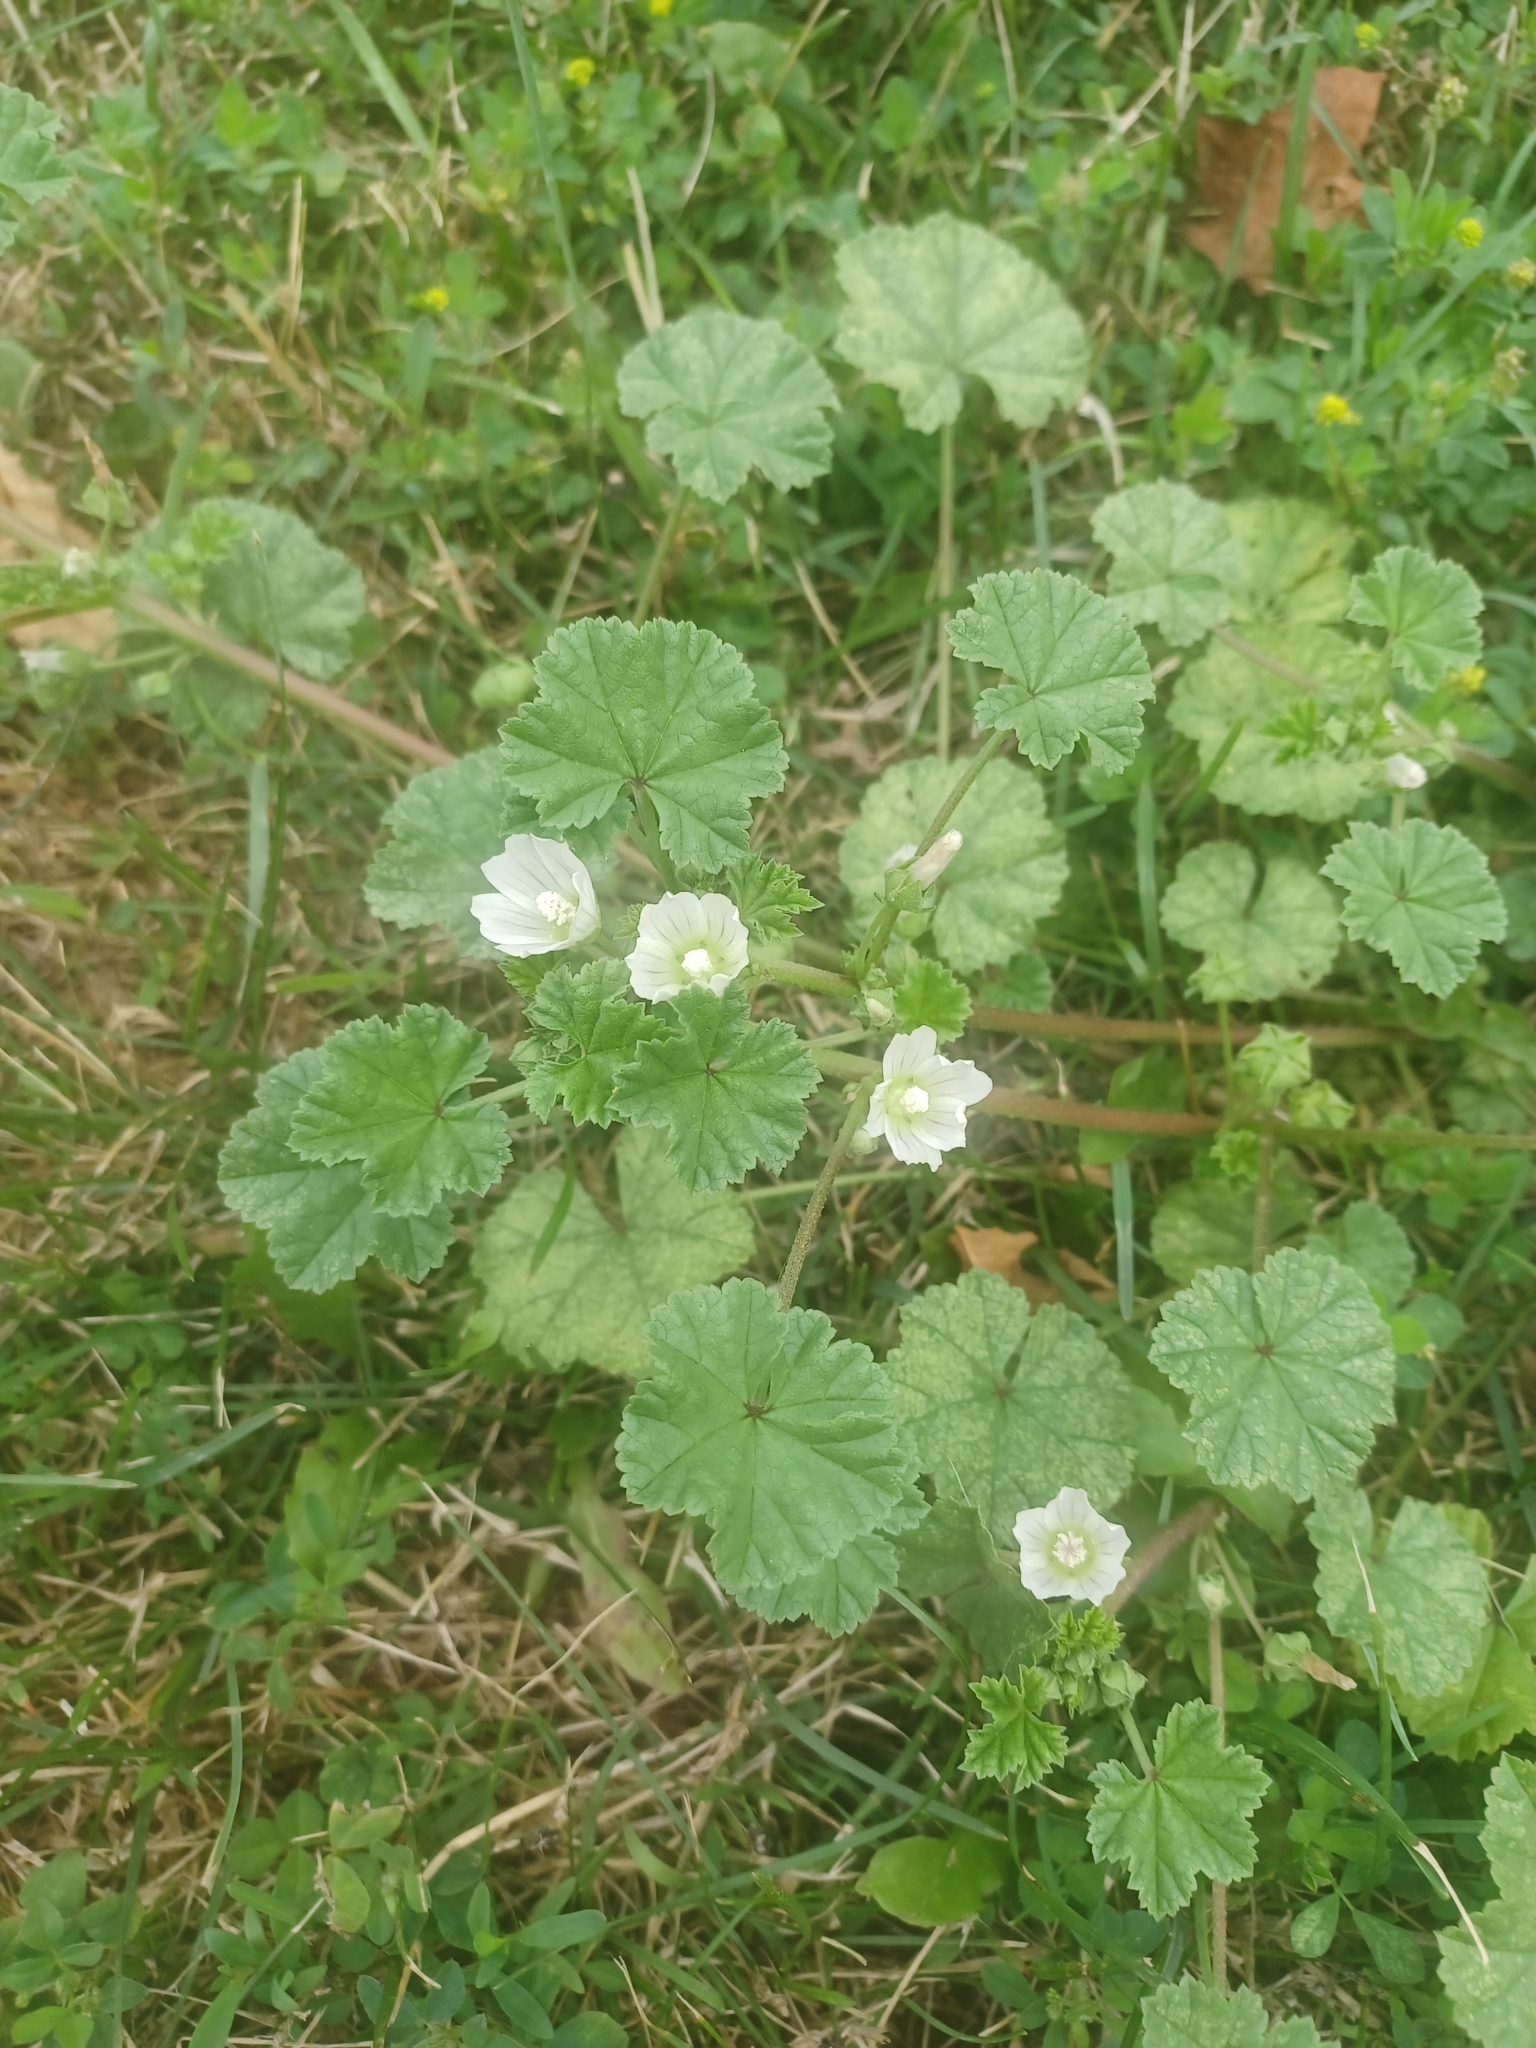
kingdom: Plantae
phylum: Tracheophyta
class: Magnoliopsida
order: Malvales
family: Malvaceae
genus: Malva
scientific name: Malva neglecta
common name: Common mallow
